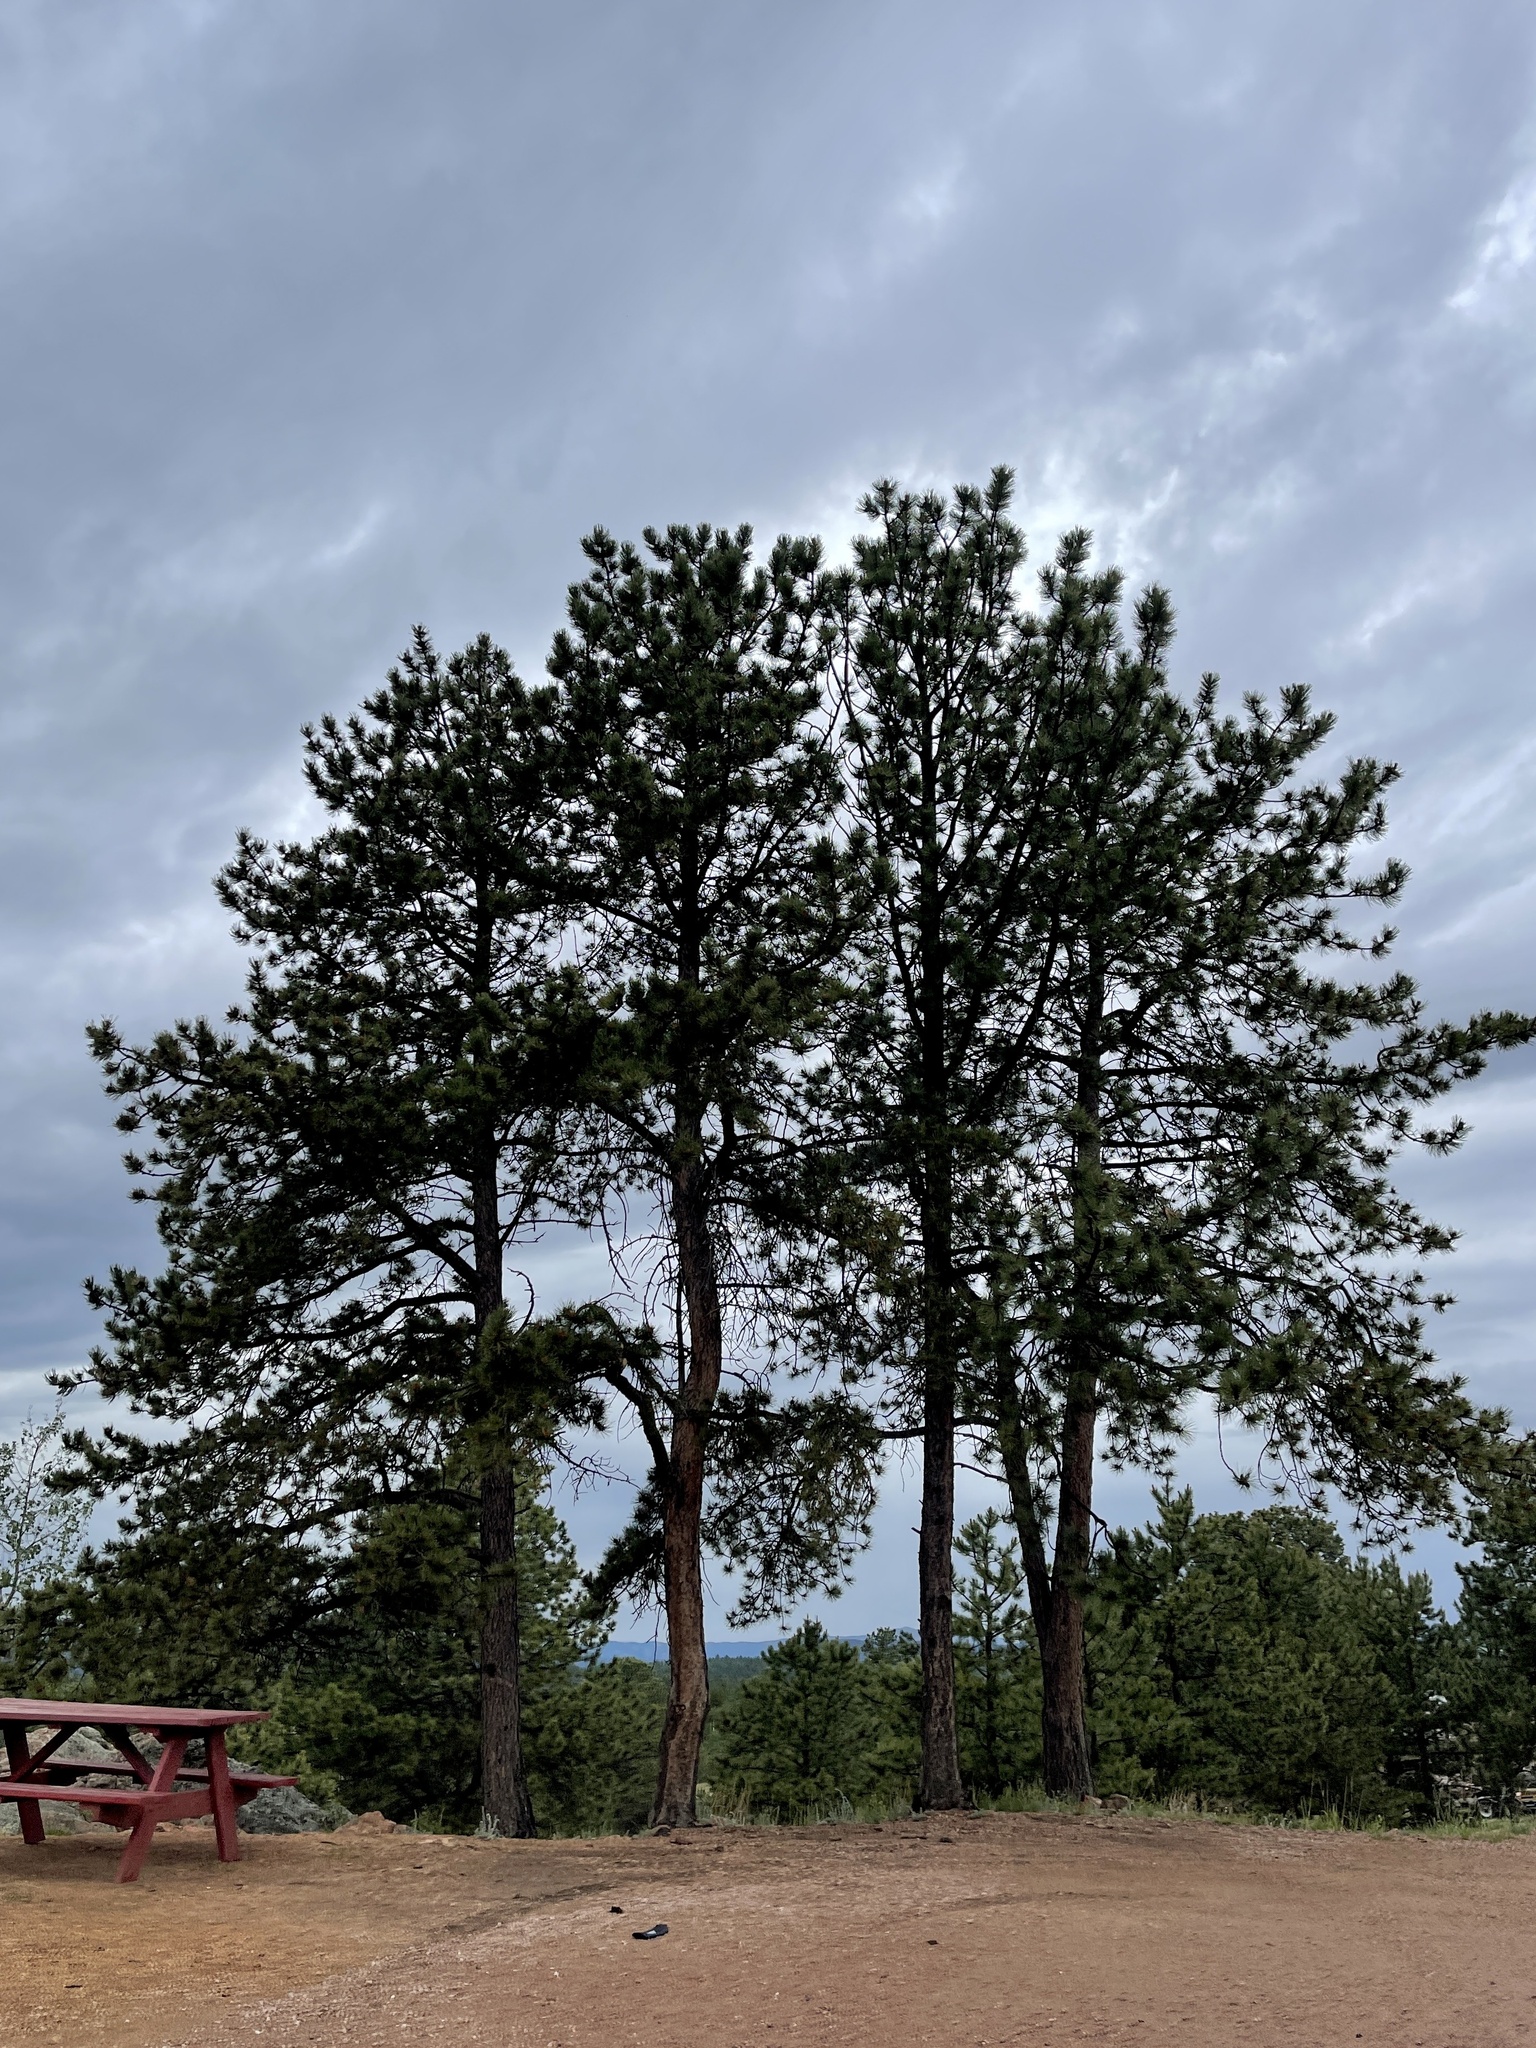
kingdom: Plantae
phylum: Tracheophyta
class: Pinopsida
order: Pinales
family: Pinaceae
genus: Pinus
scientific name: Pinus ponderosa
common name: Western yellow-pine
